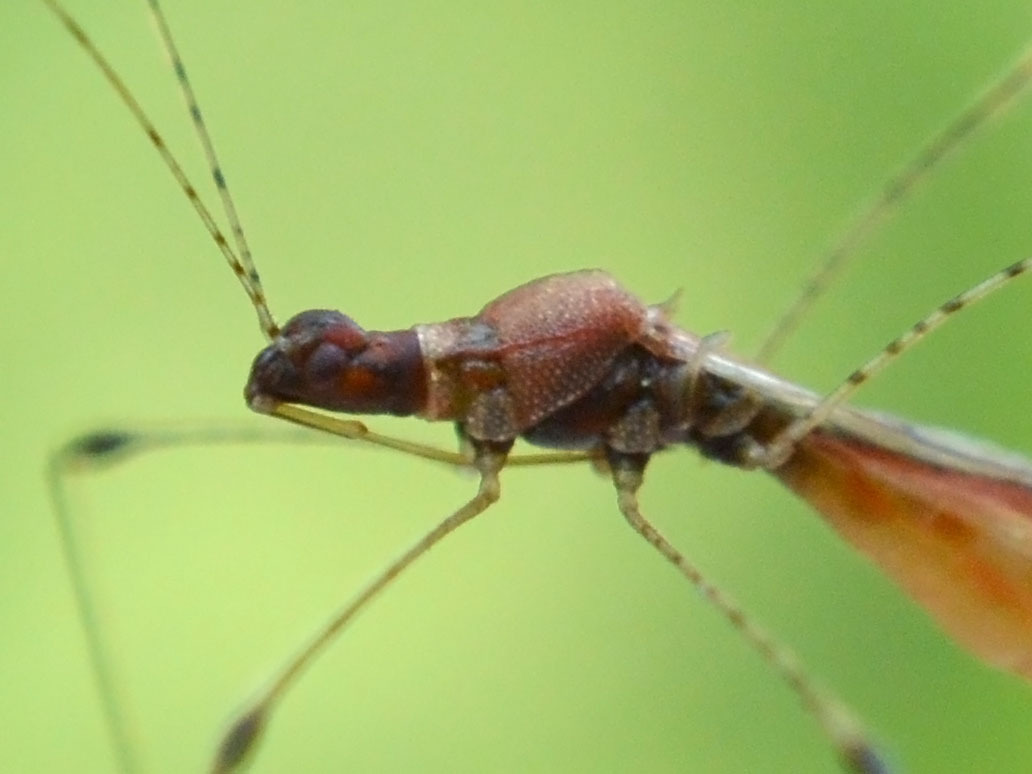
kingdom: Animalia
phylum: Arthropoda
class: Insecta
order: Hemiptera
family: Berytidae
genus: Metacanthus
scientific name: Metacanthus annulosus
